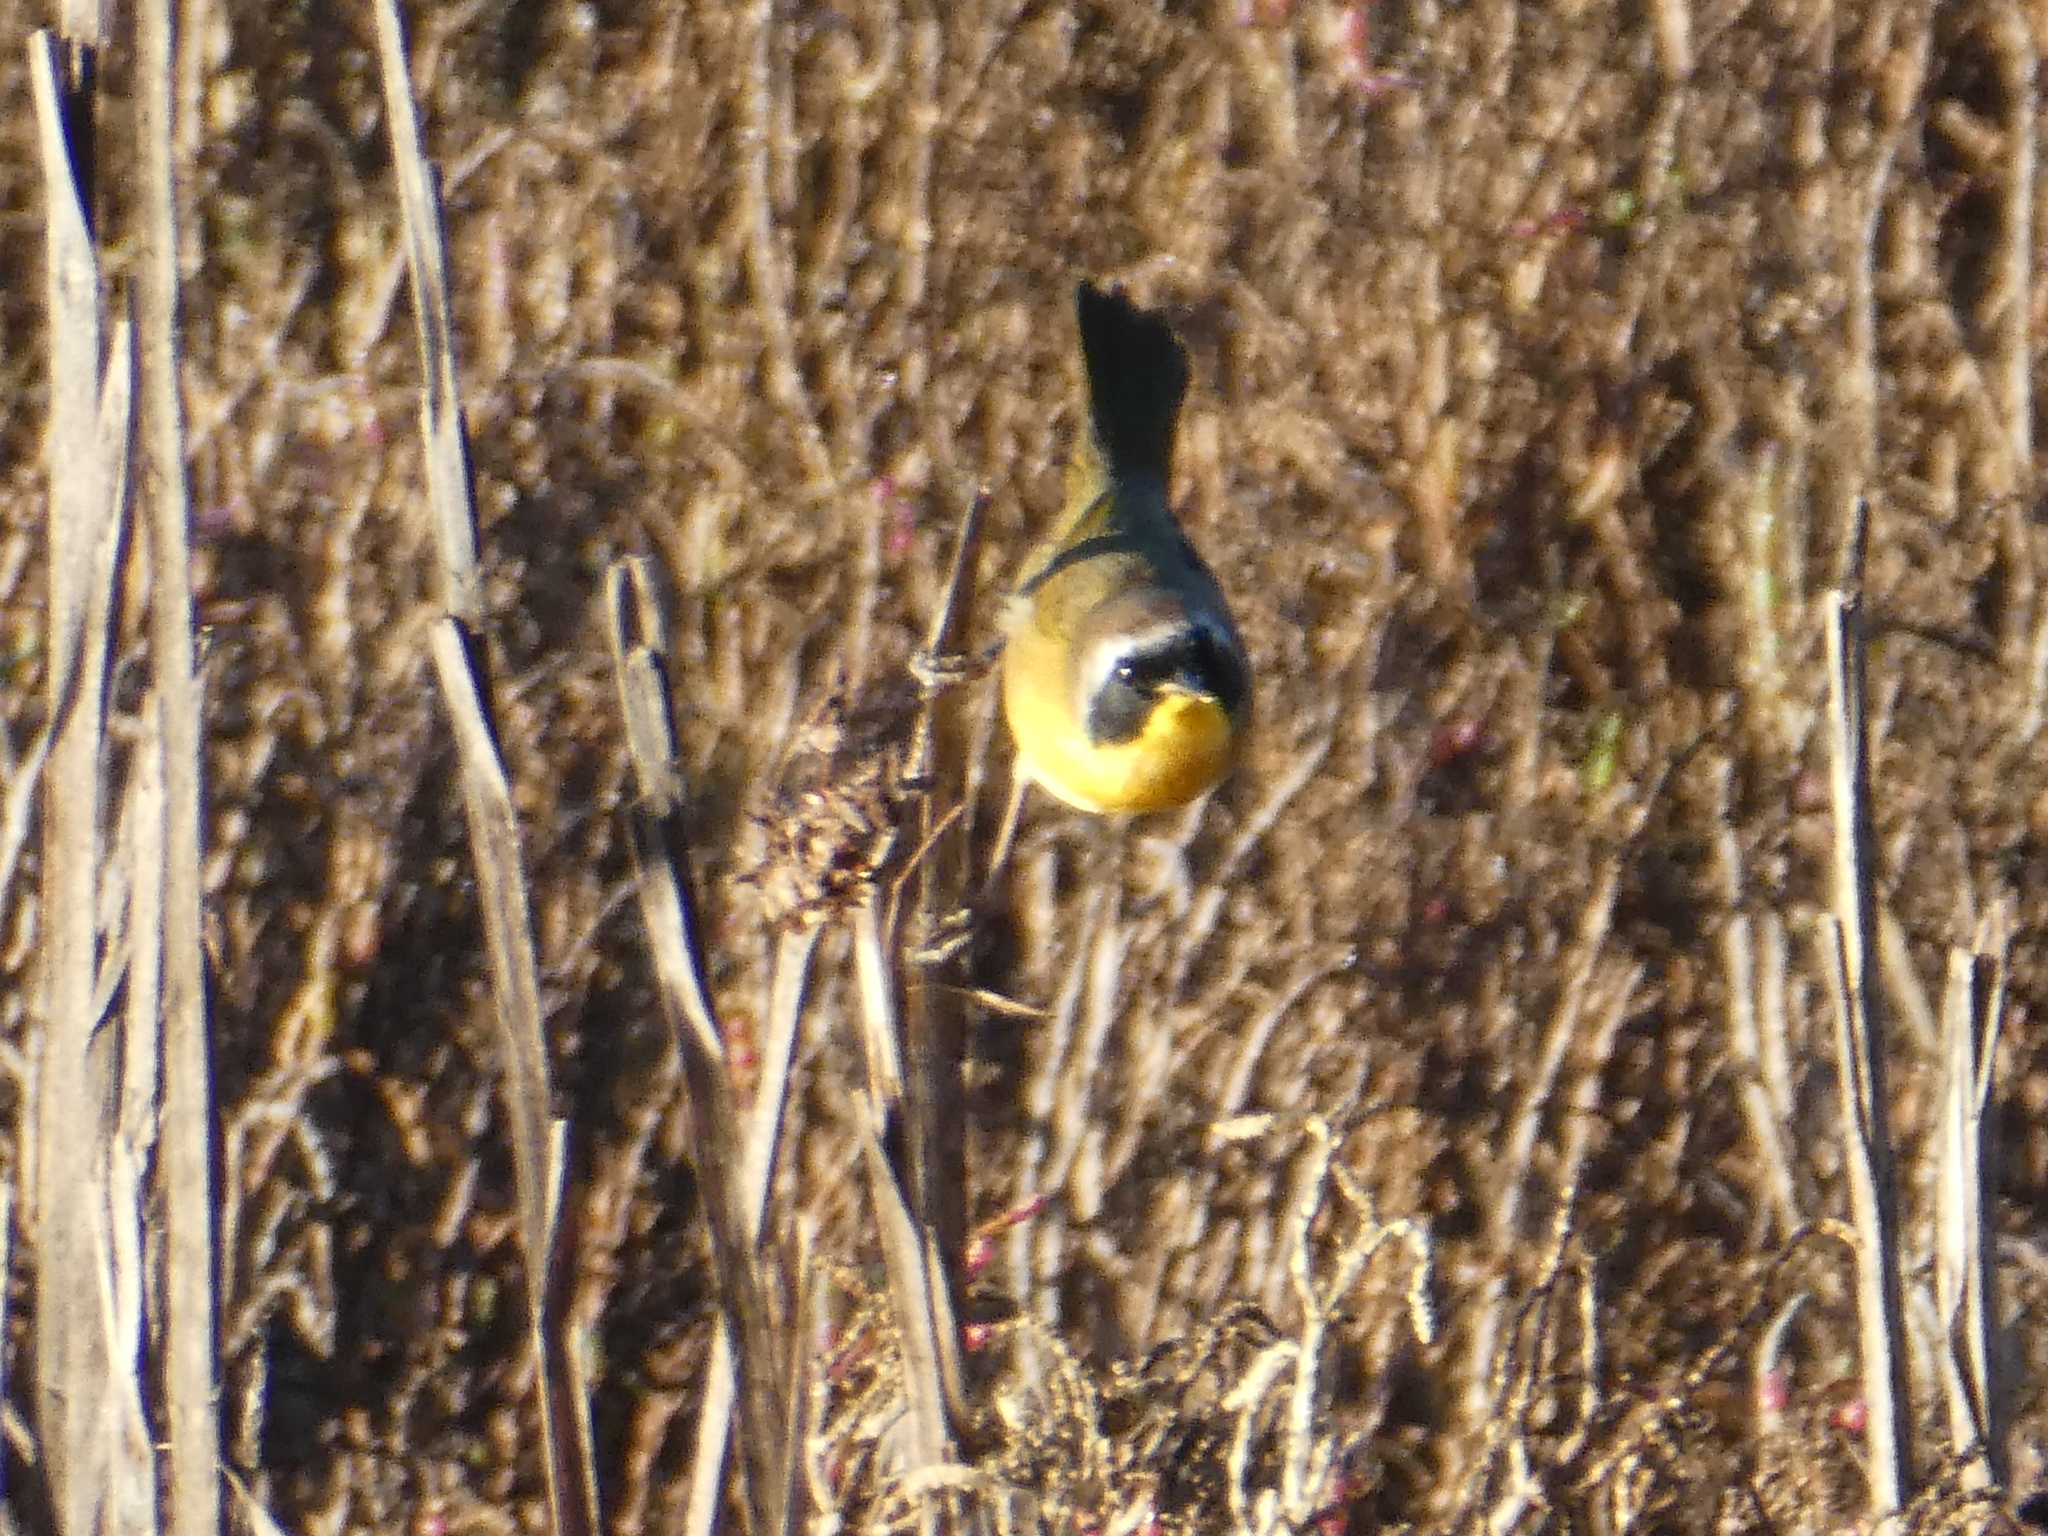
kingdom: Animalia
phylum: Chordata
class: Aves
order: Passeriformes
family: Parulidae
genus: Geothlypis
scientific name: Geothlypis trichas
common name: Common yellowthroat
